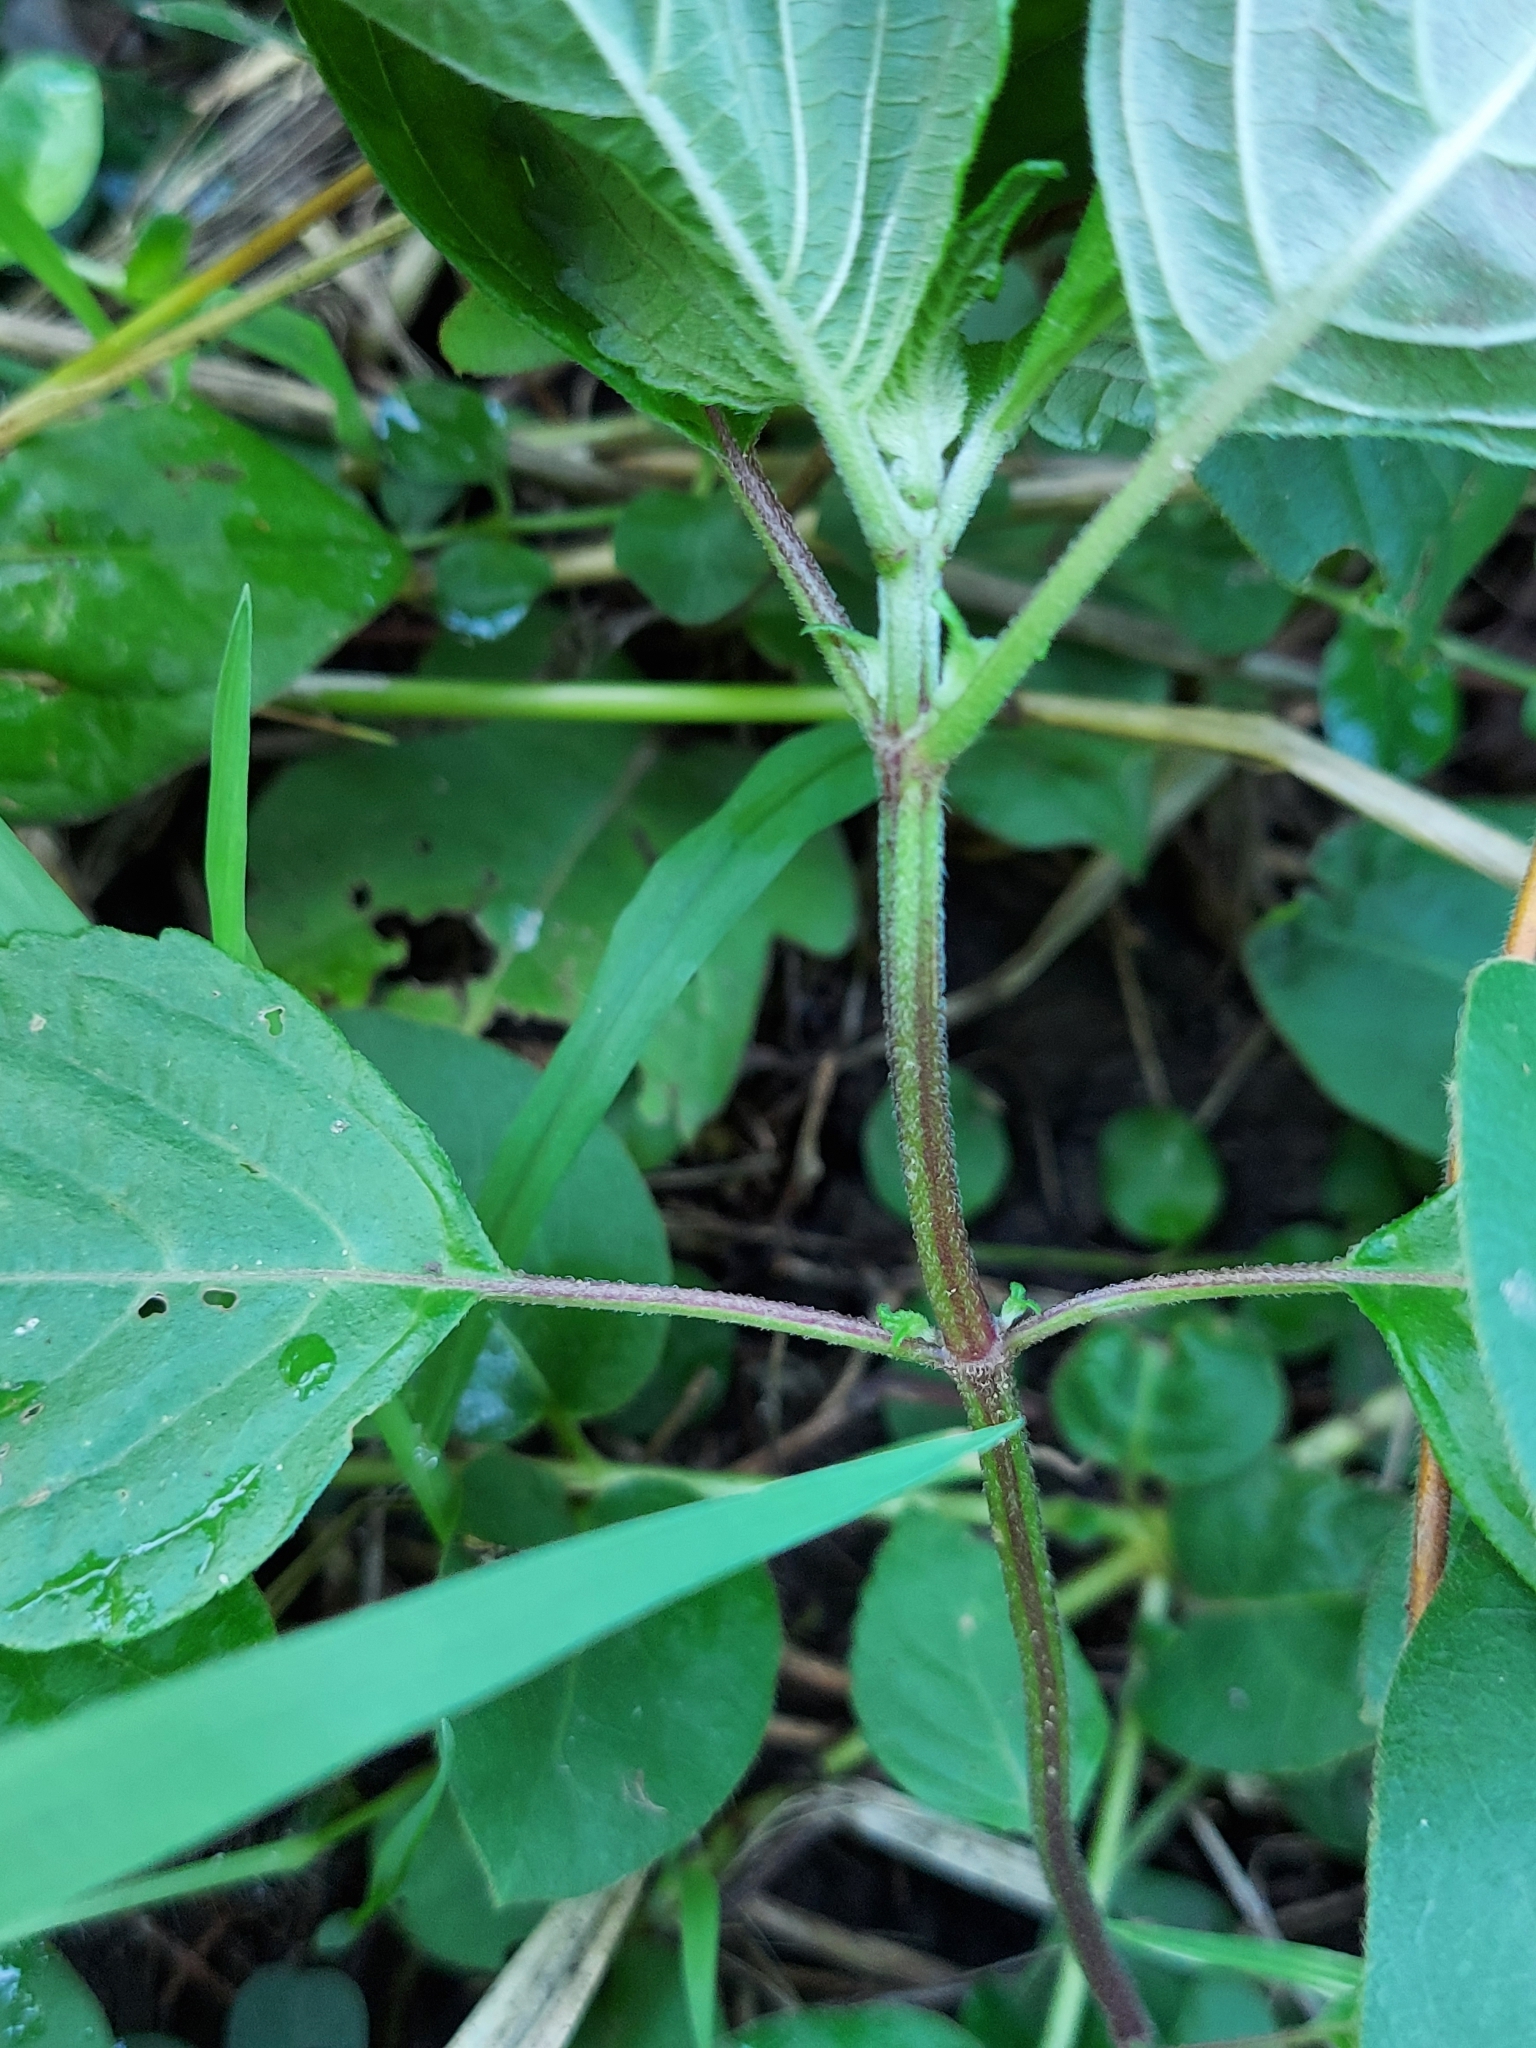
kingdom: Plantae
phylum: Tracheophyta
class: Magnoliopsida
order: Lamiales
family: Lamiaceae
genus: Perilla
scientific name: Perilla frutescens
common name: Perilla
